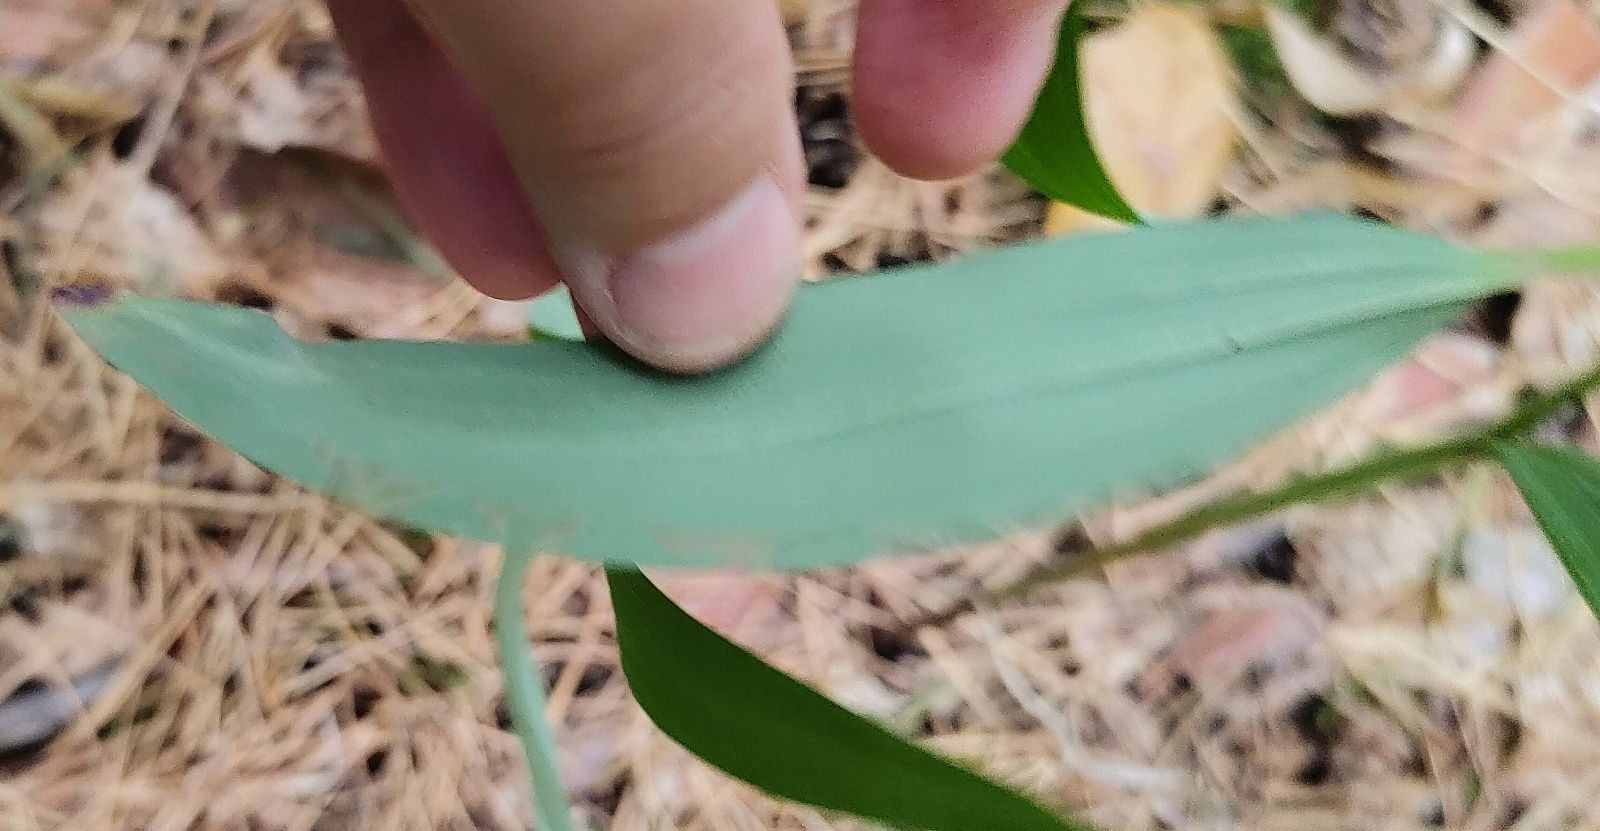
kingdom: Plantae
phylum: Tracheophyta
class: Liliopsida
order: Asparagales
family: Asparagaceae
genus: Polygonatum
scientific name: Polygonatum odoratum
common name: Angular solomon's-seal
